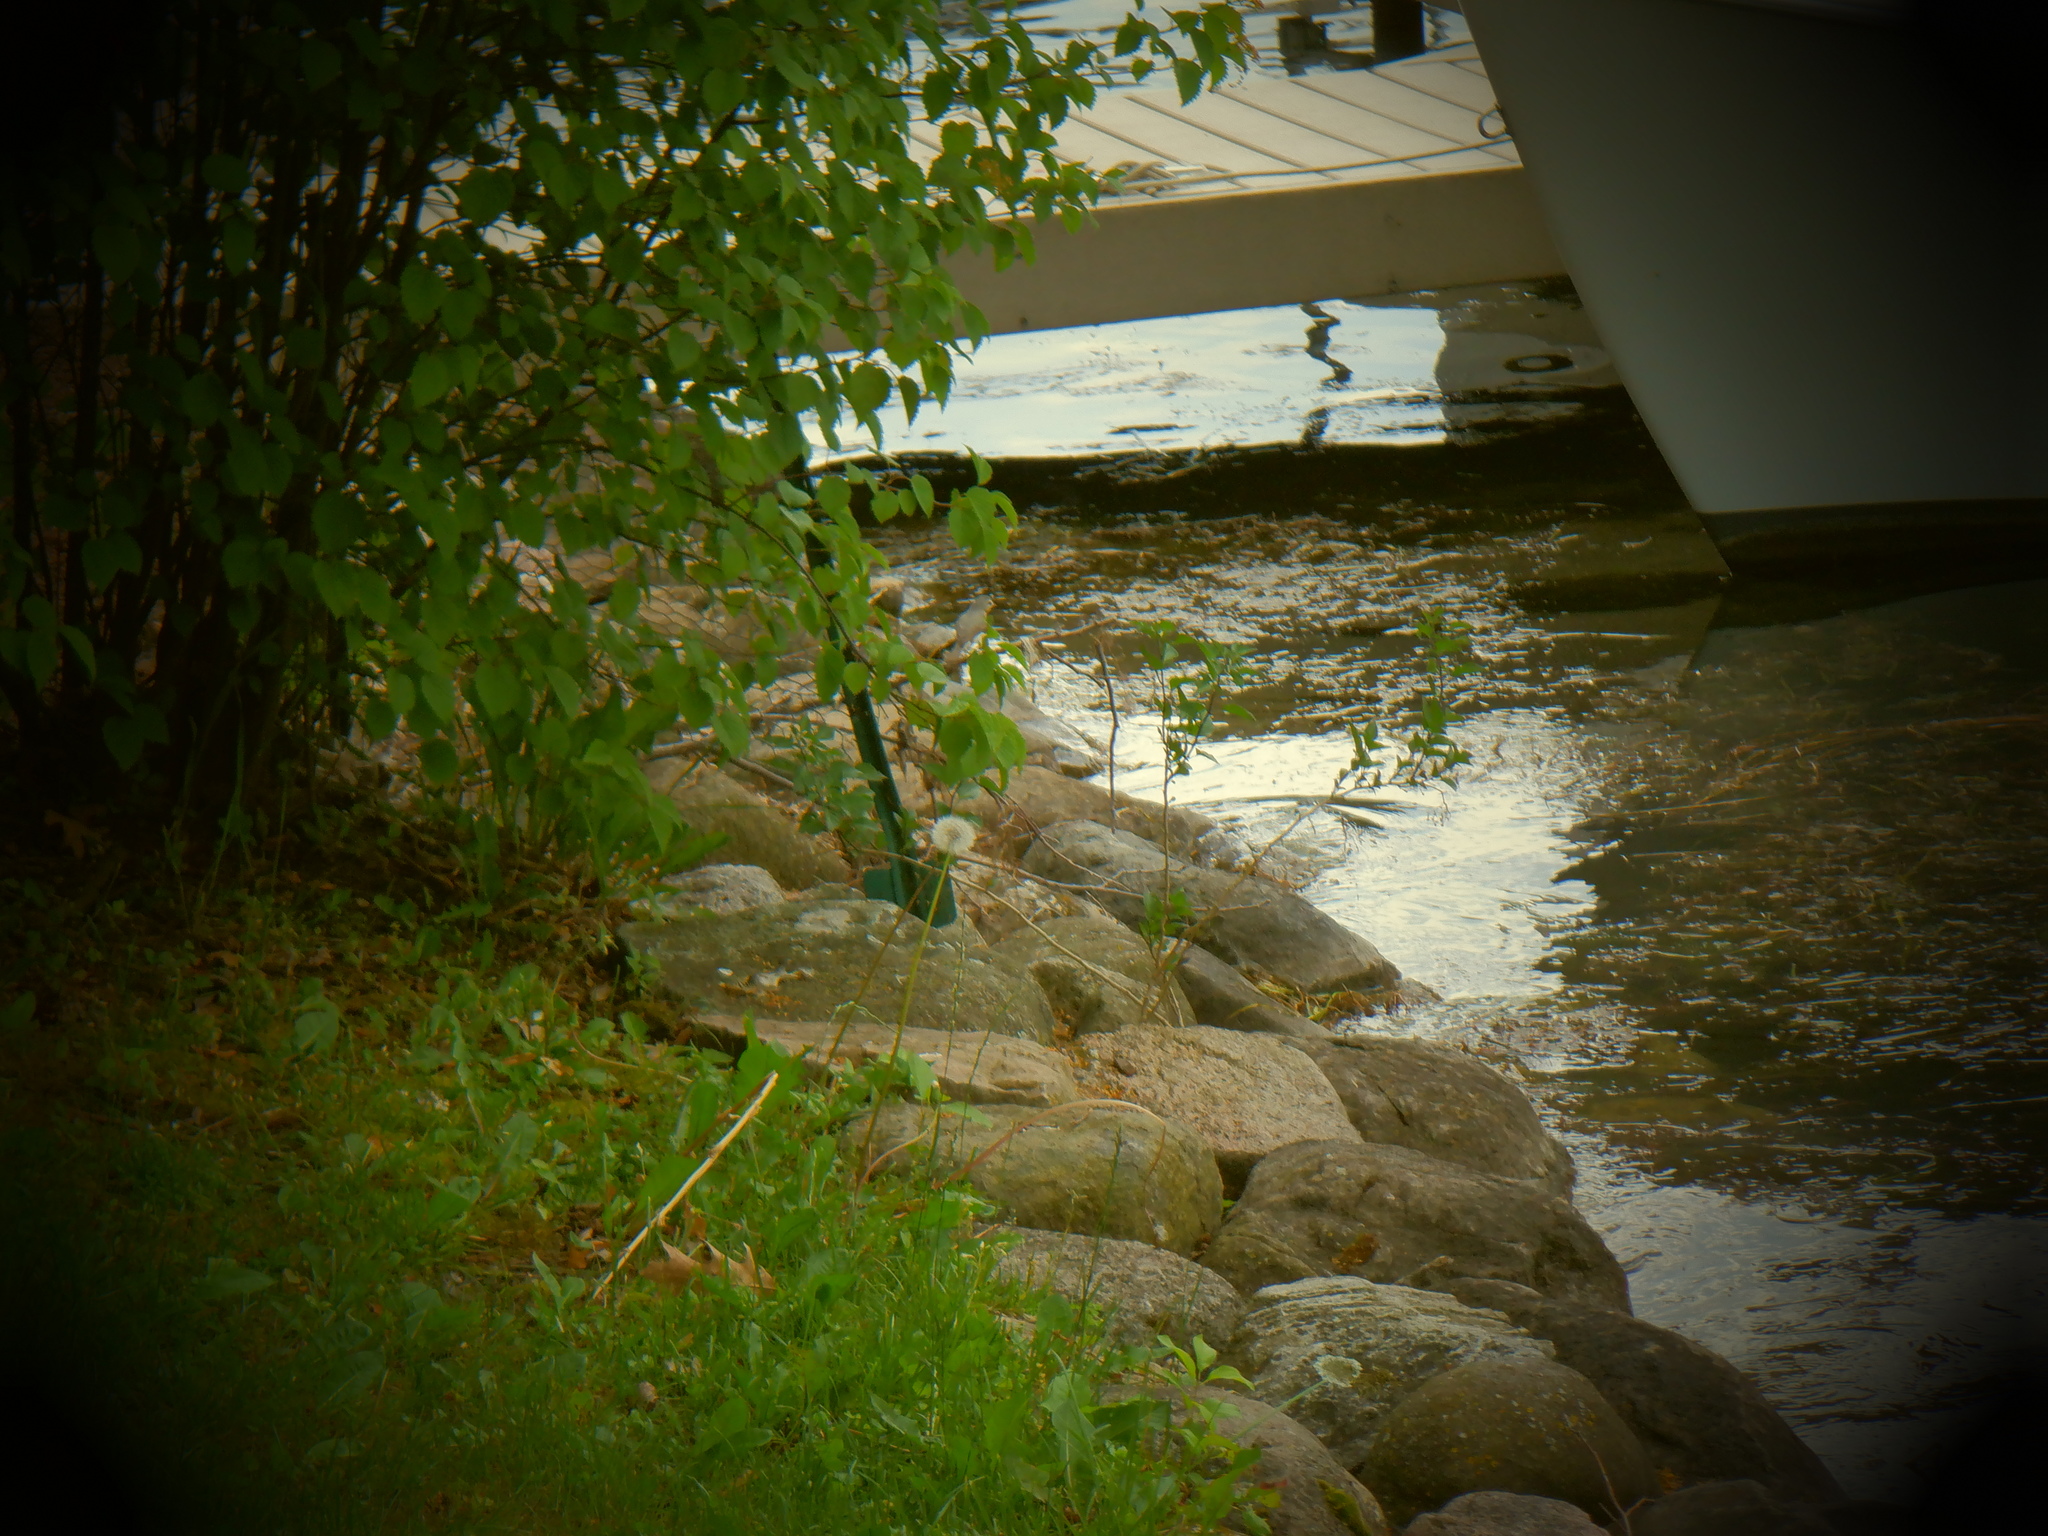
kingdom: Animalia
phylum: Chordata
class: Aves
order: Passeriformes
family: Vireonidae
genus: Vireo
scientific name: Vireo gilvus
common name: Warbling vireo
